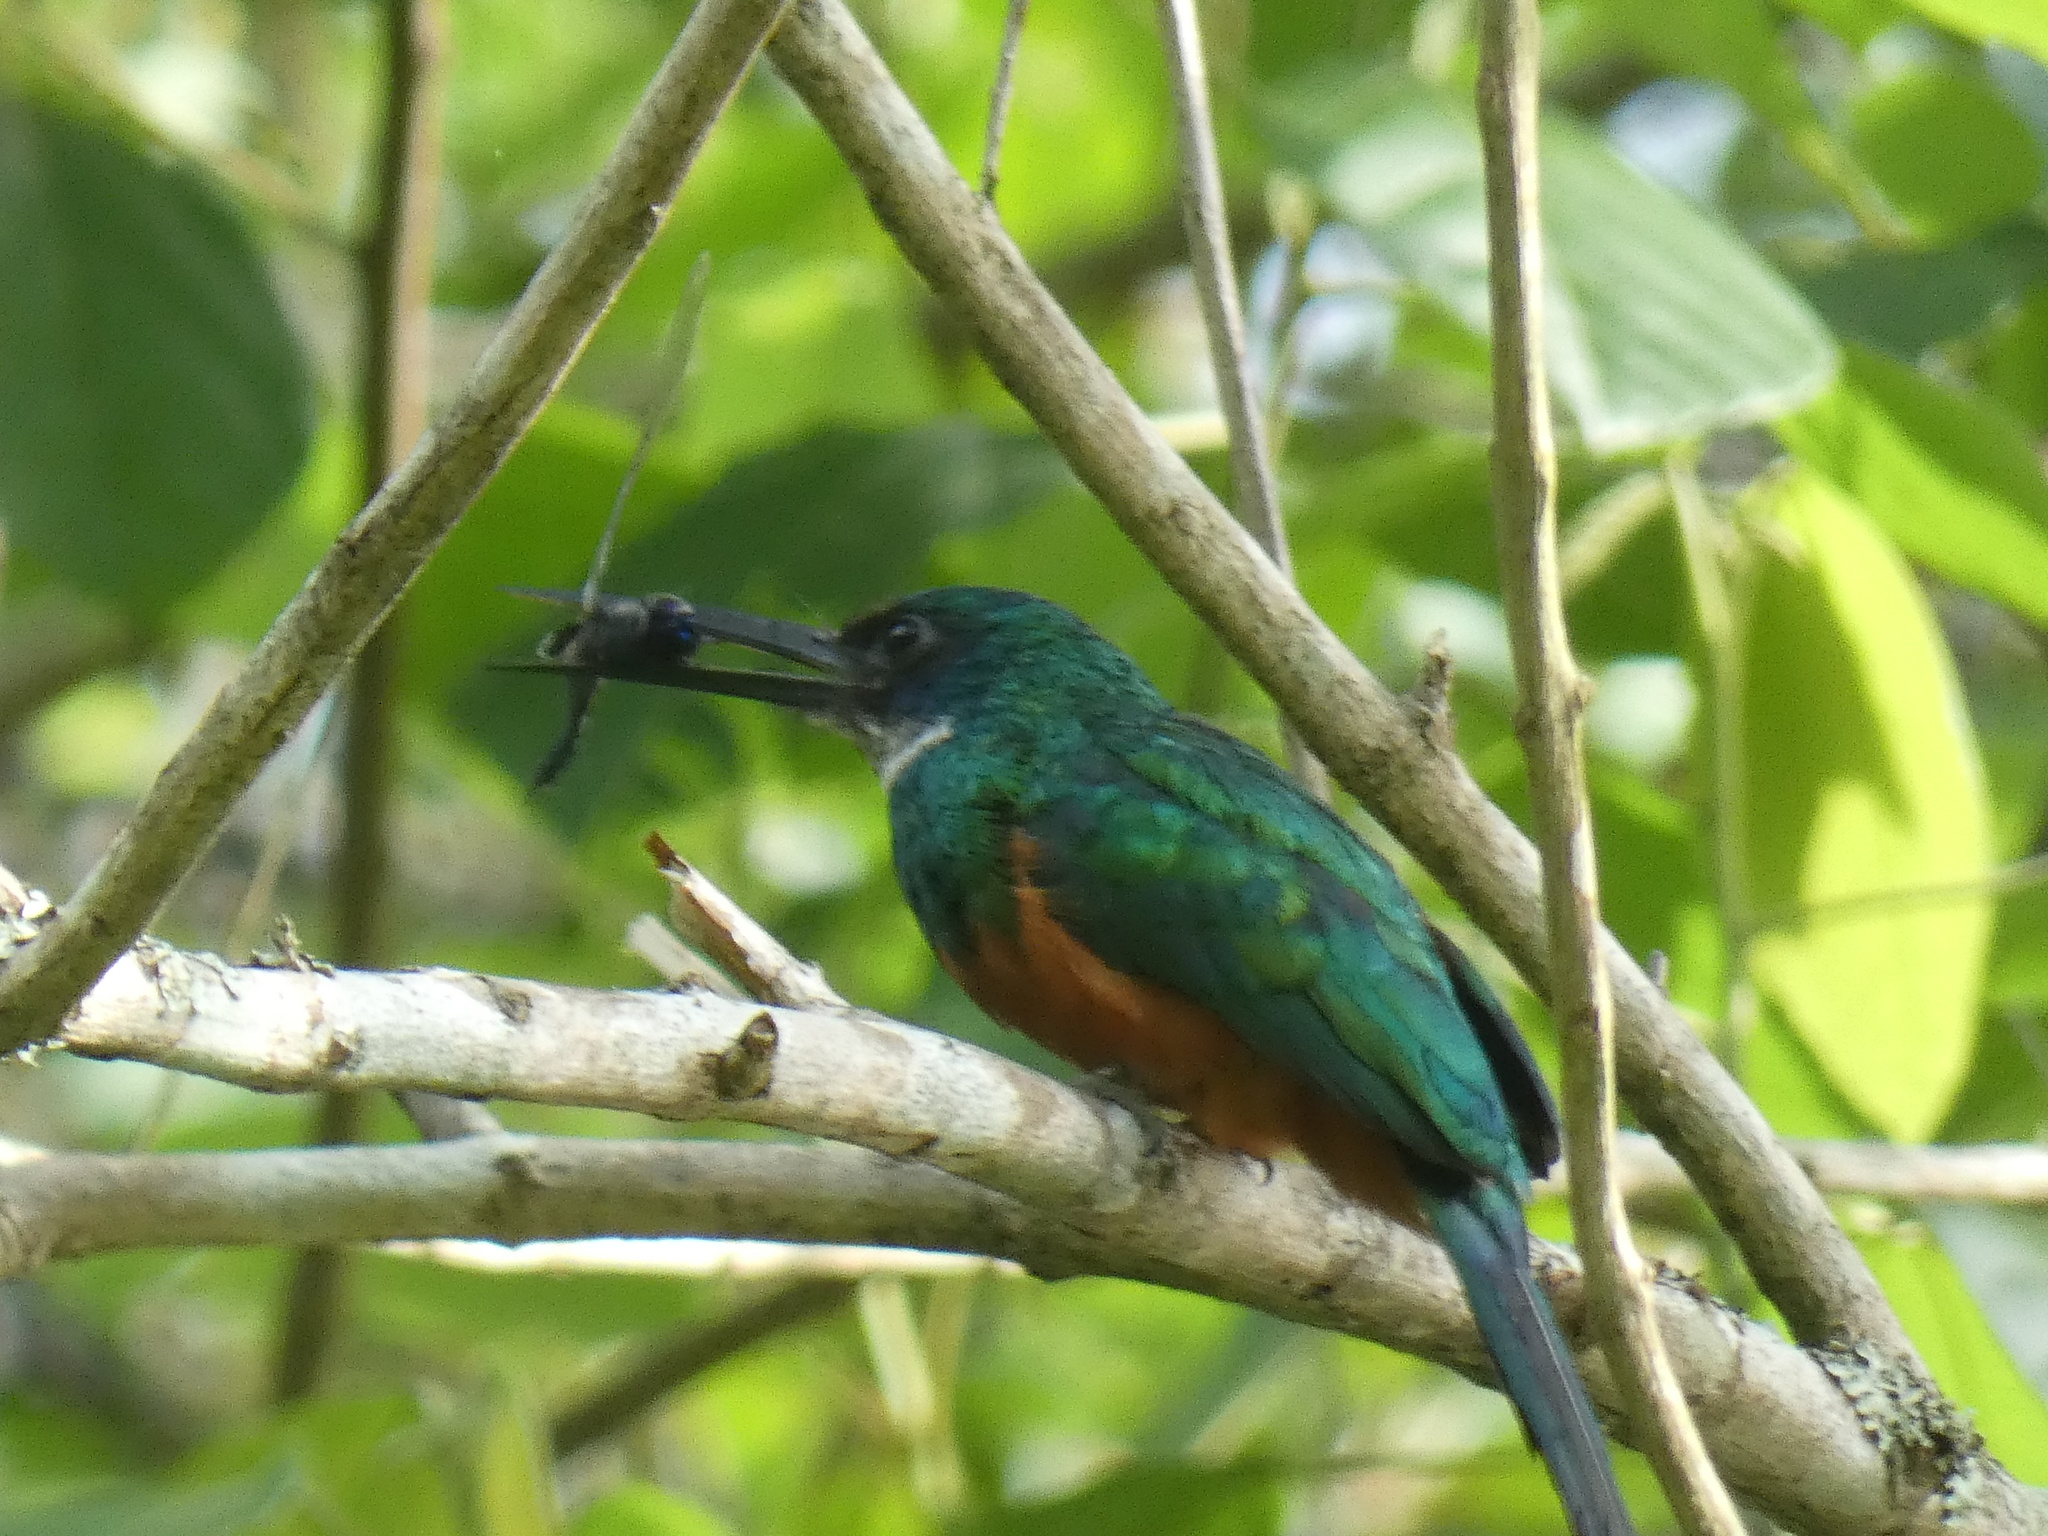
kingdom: Animalia
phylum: Chordata
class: Aves
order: Piciformes
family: Galbulidae
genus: Galbula
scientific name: Galbula ruficauda
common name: Rufous-tailed jacamar
